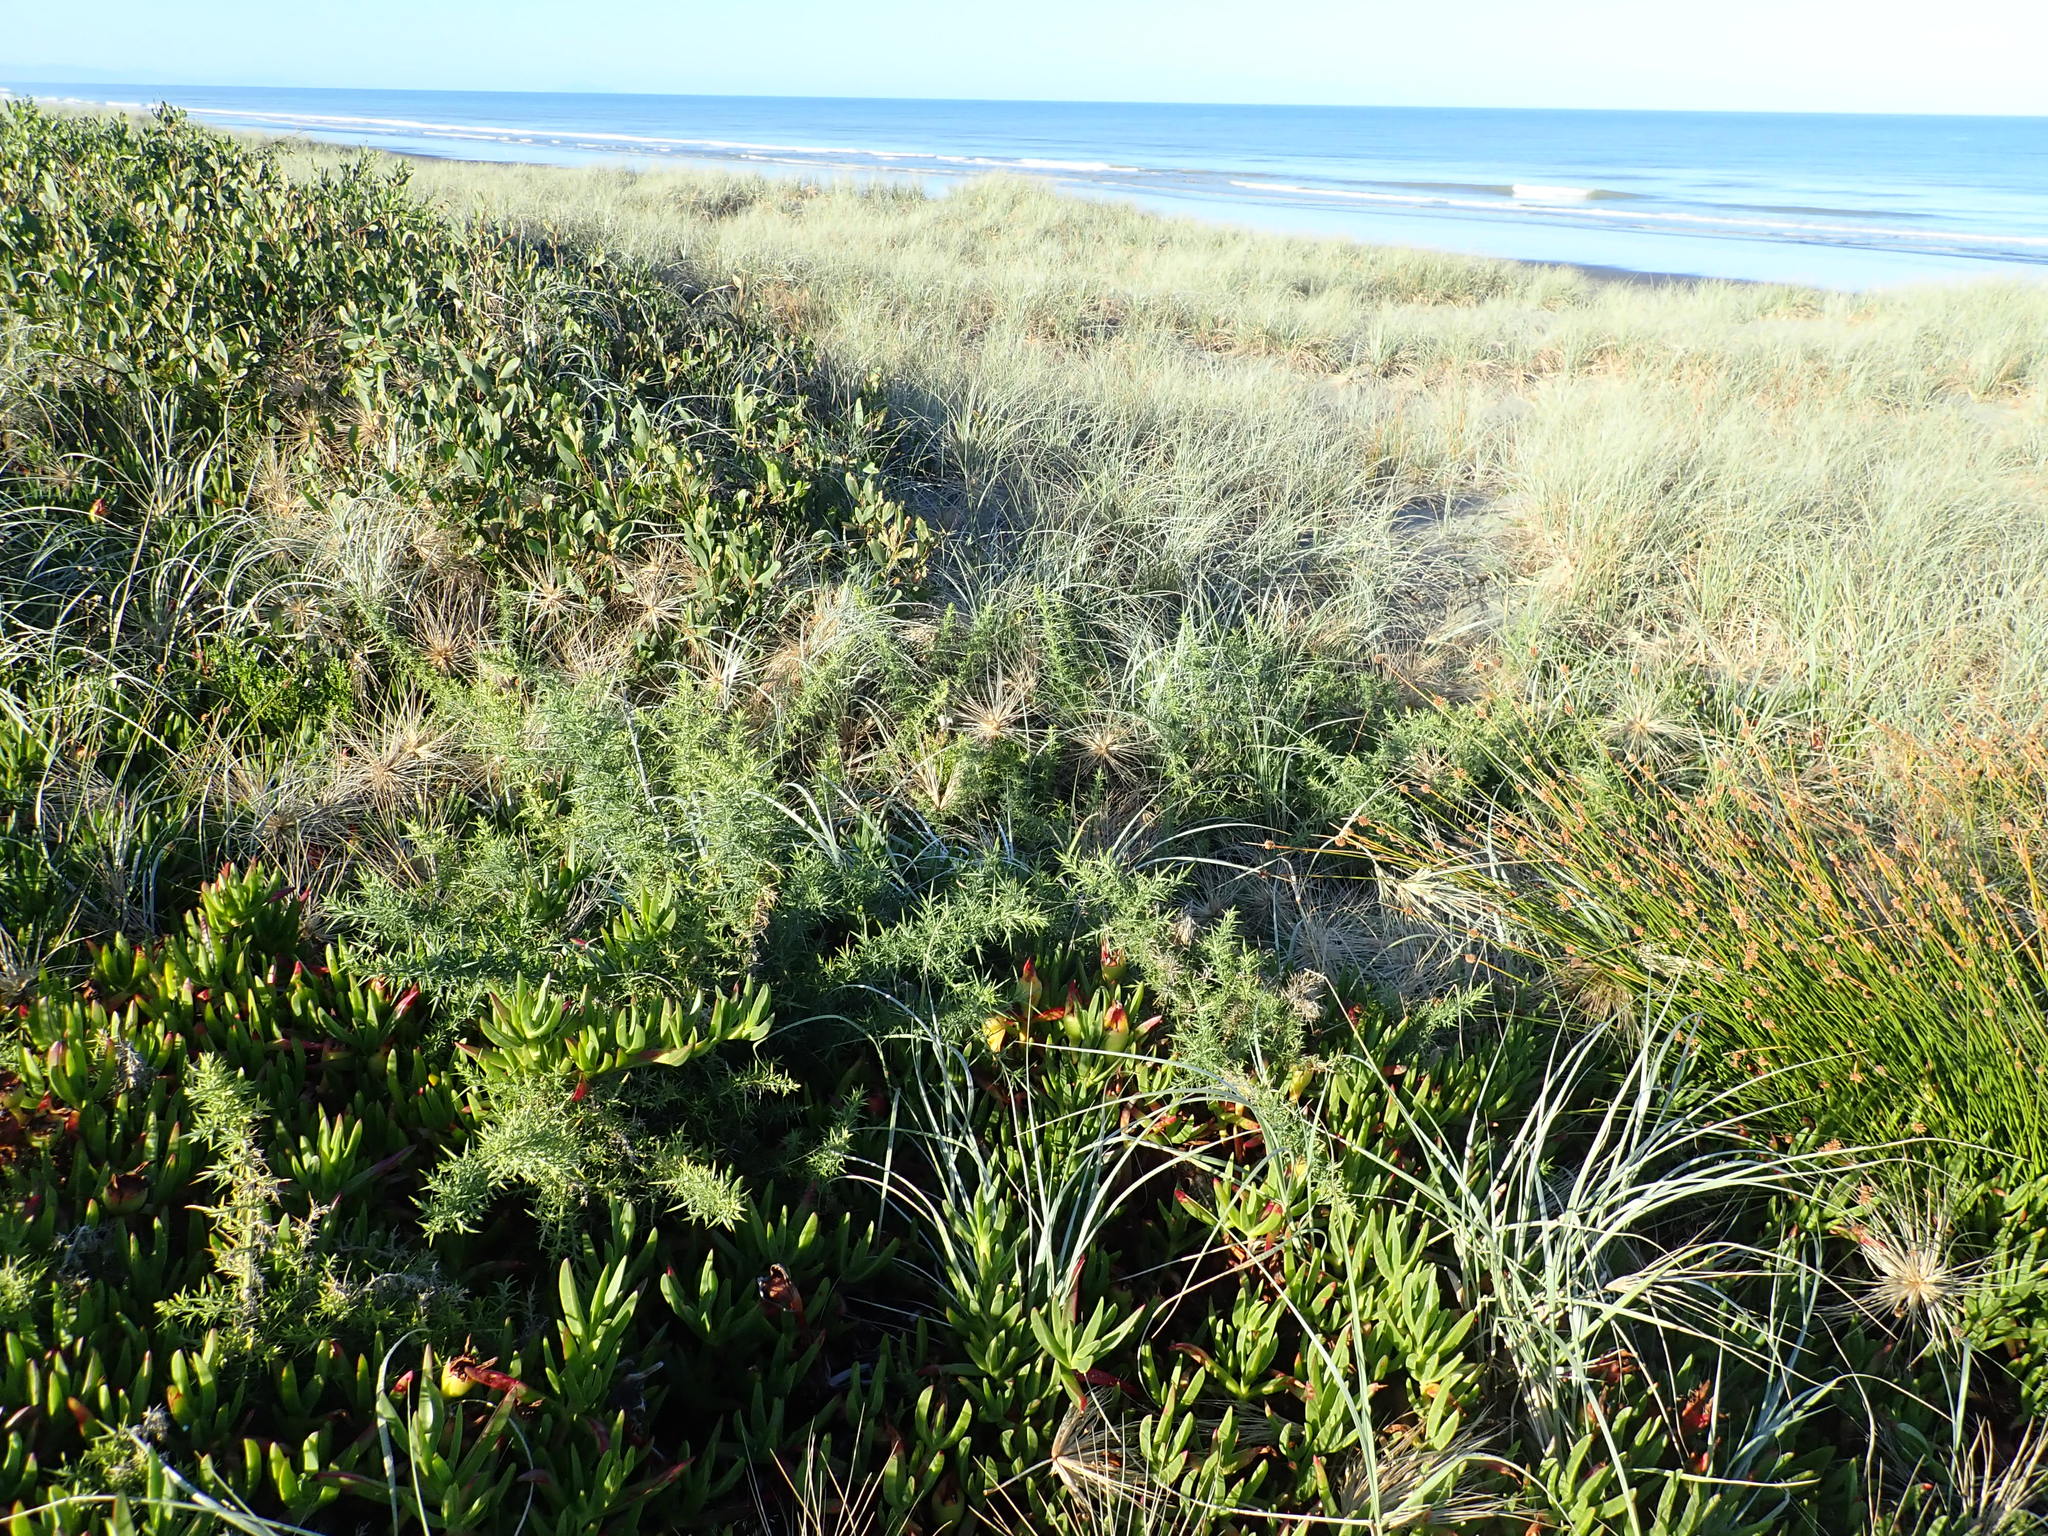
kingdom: Plantae
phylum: Tracheophyta
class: Magnoliopsida
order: Fabales
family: Fabaceae
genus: Ulex
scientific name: Ulex europaeus
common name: Common gorse
